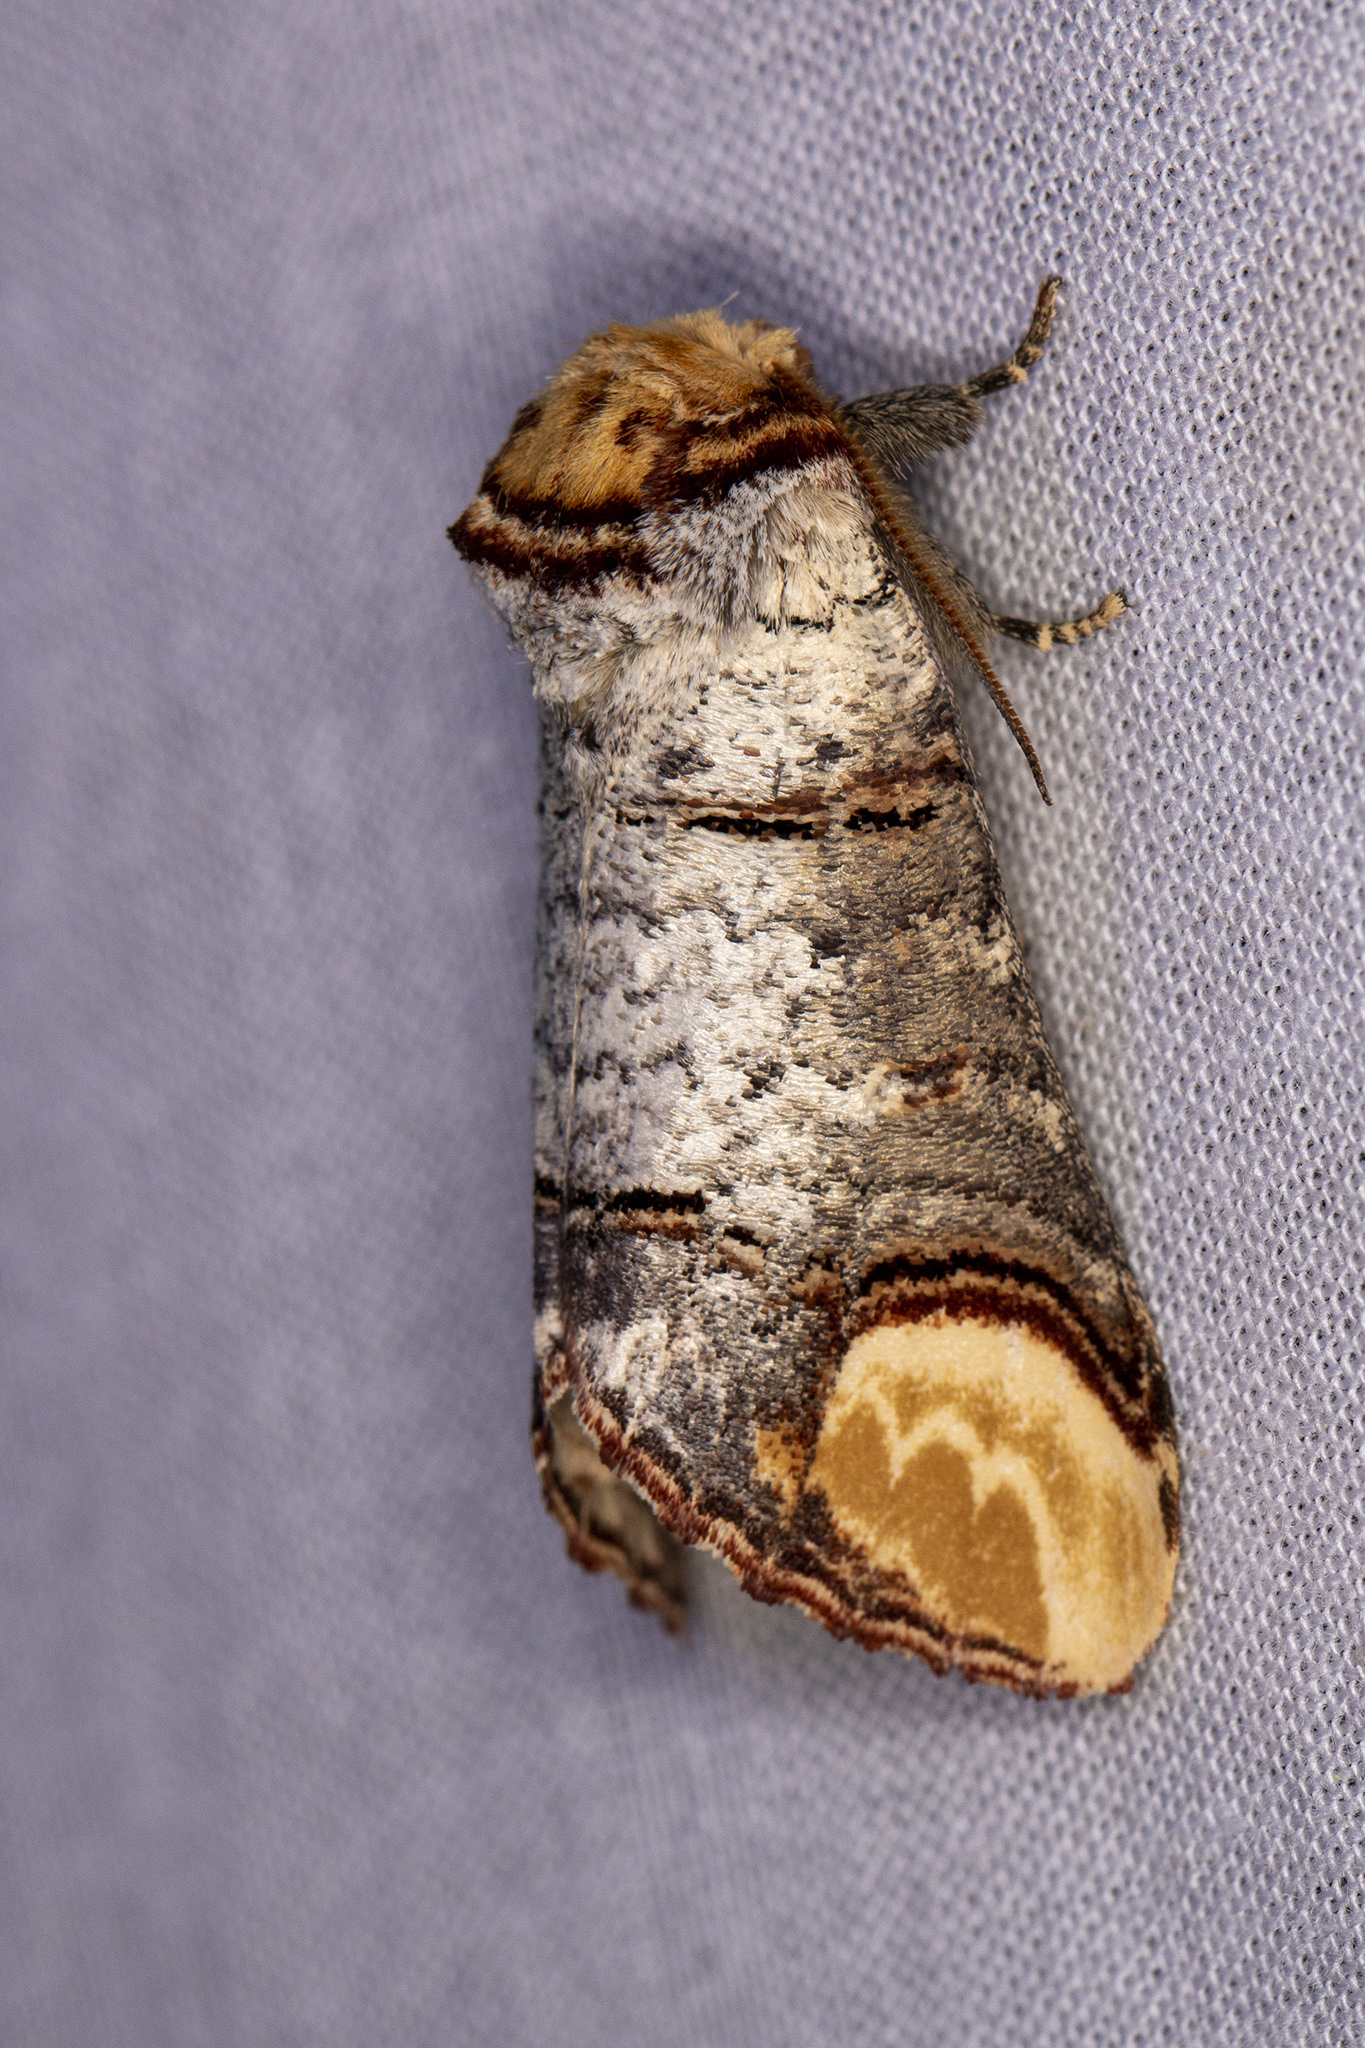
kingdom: Animalia
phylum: Arthropoda
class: Insecta
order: Lepidoptera
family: Notodontidae
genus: Phalera
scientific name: Phalera bucephala
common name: Buff-tip
